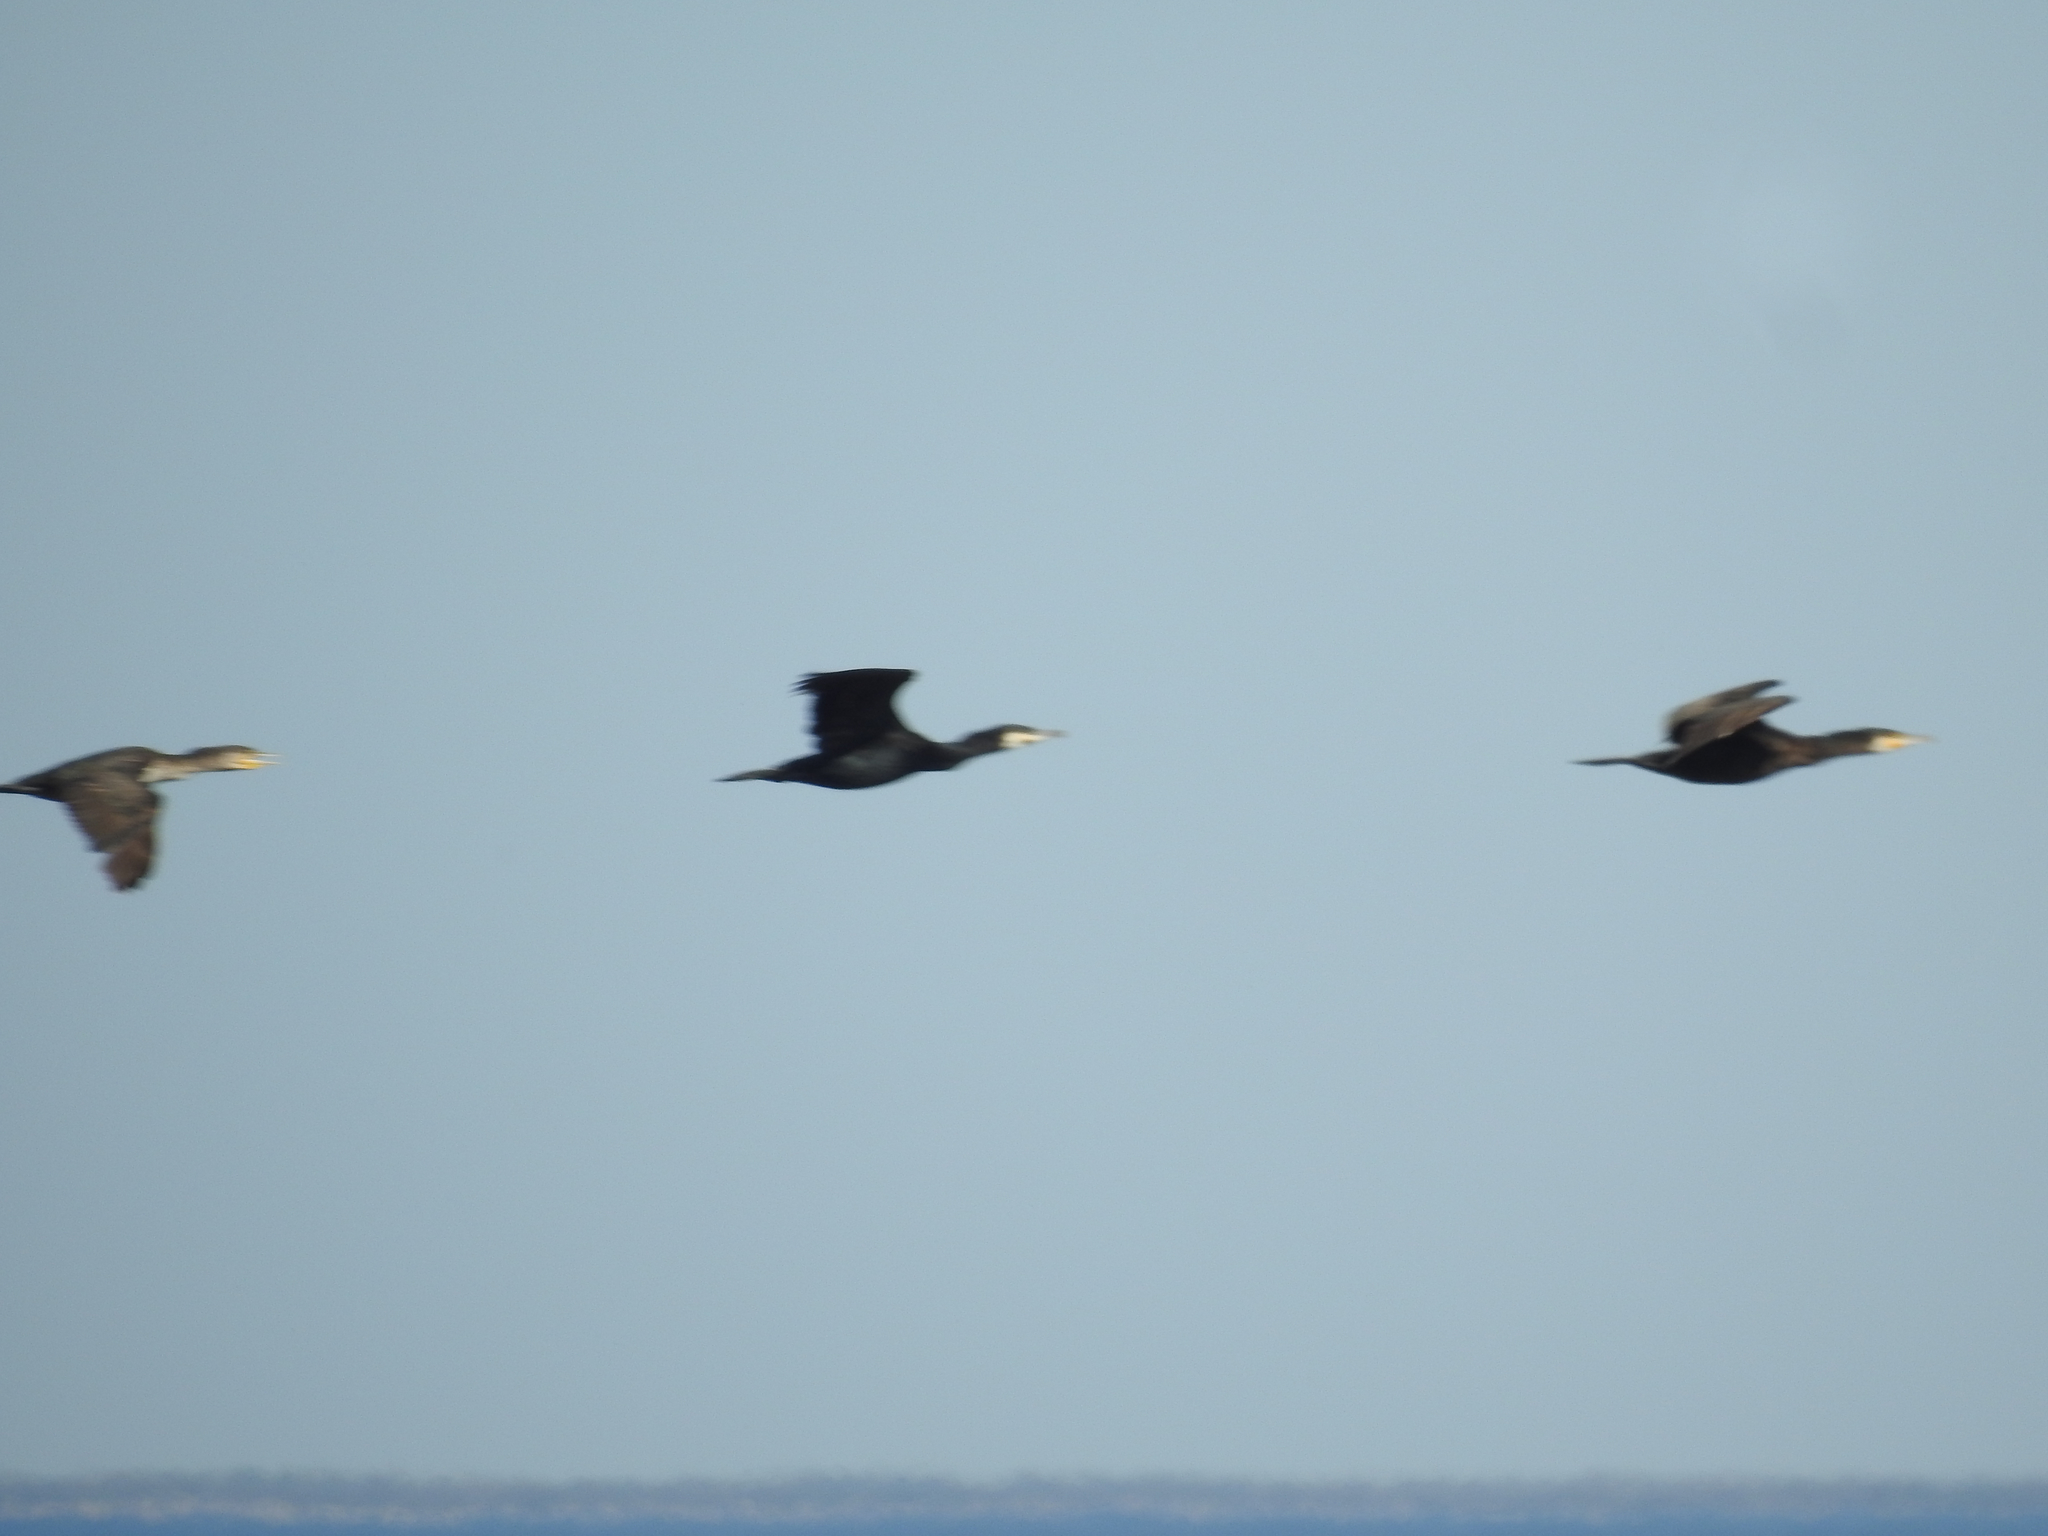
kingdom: Animalia
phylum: Chordata
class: Aves
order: Suliformes
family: Phalacrocoracidae
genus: Phalacrocorax
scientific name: Phalacrocorax carbo
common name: Great cormorant
